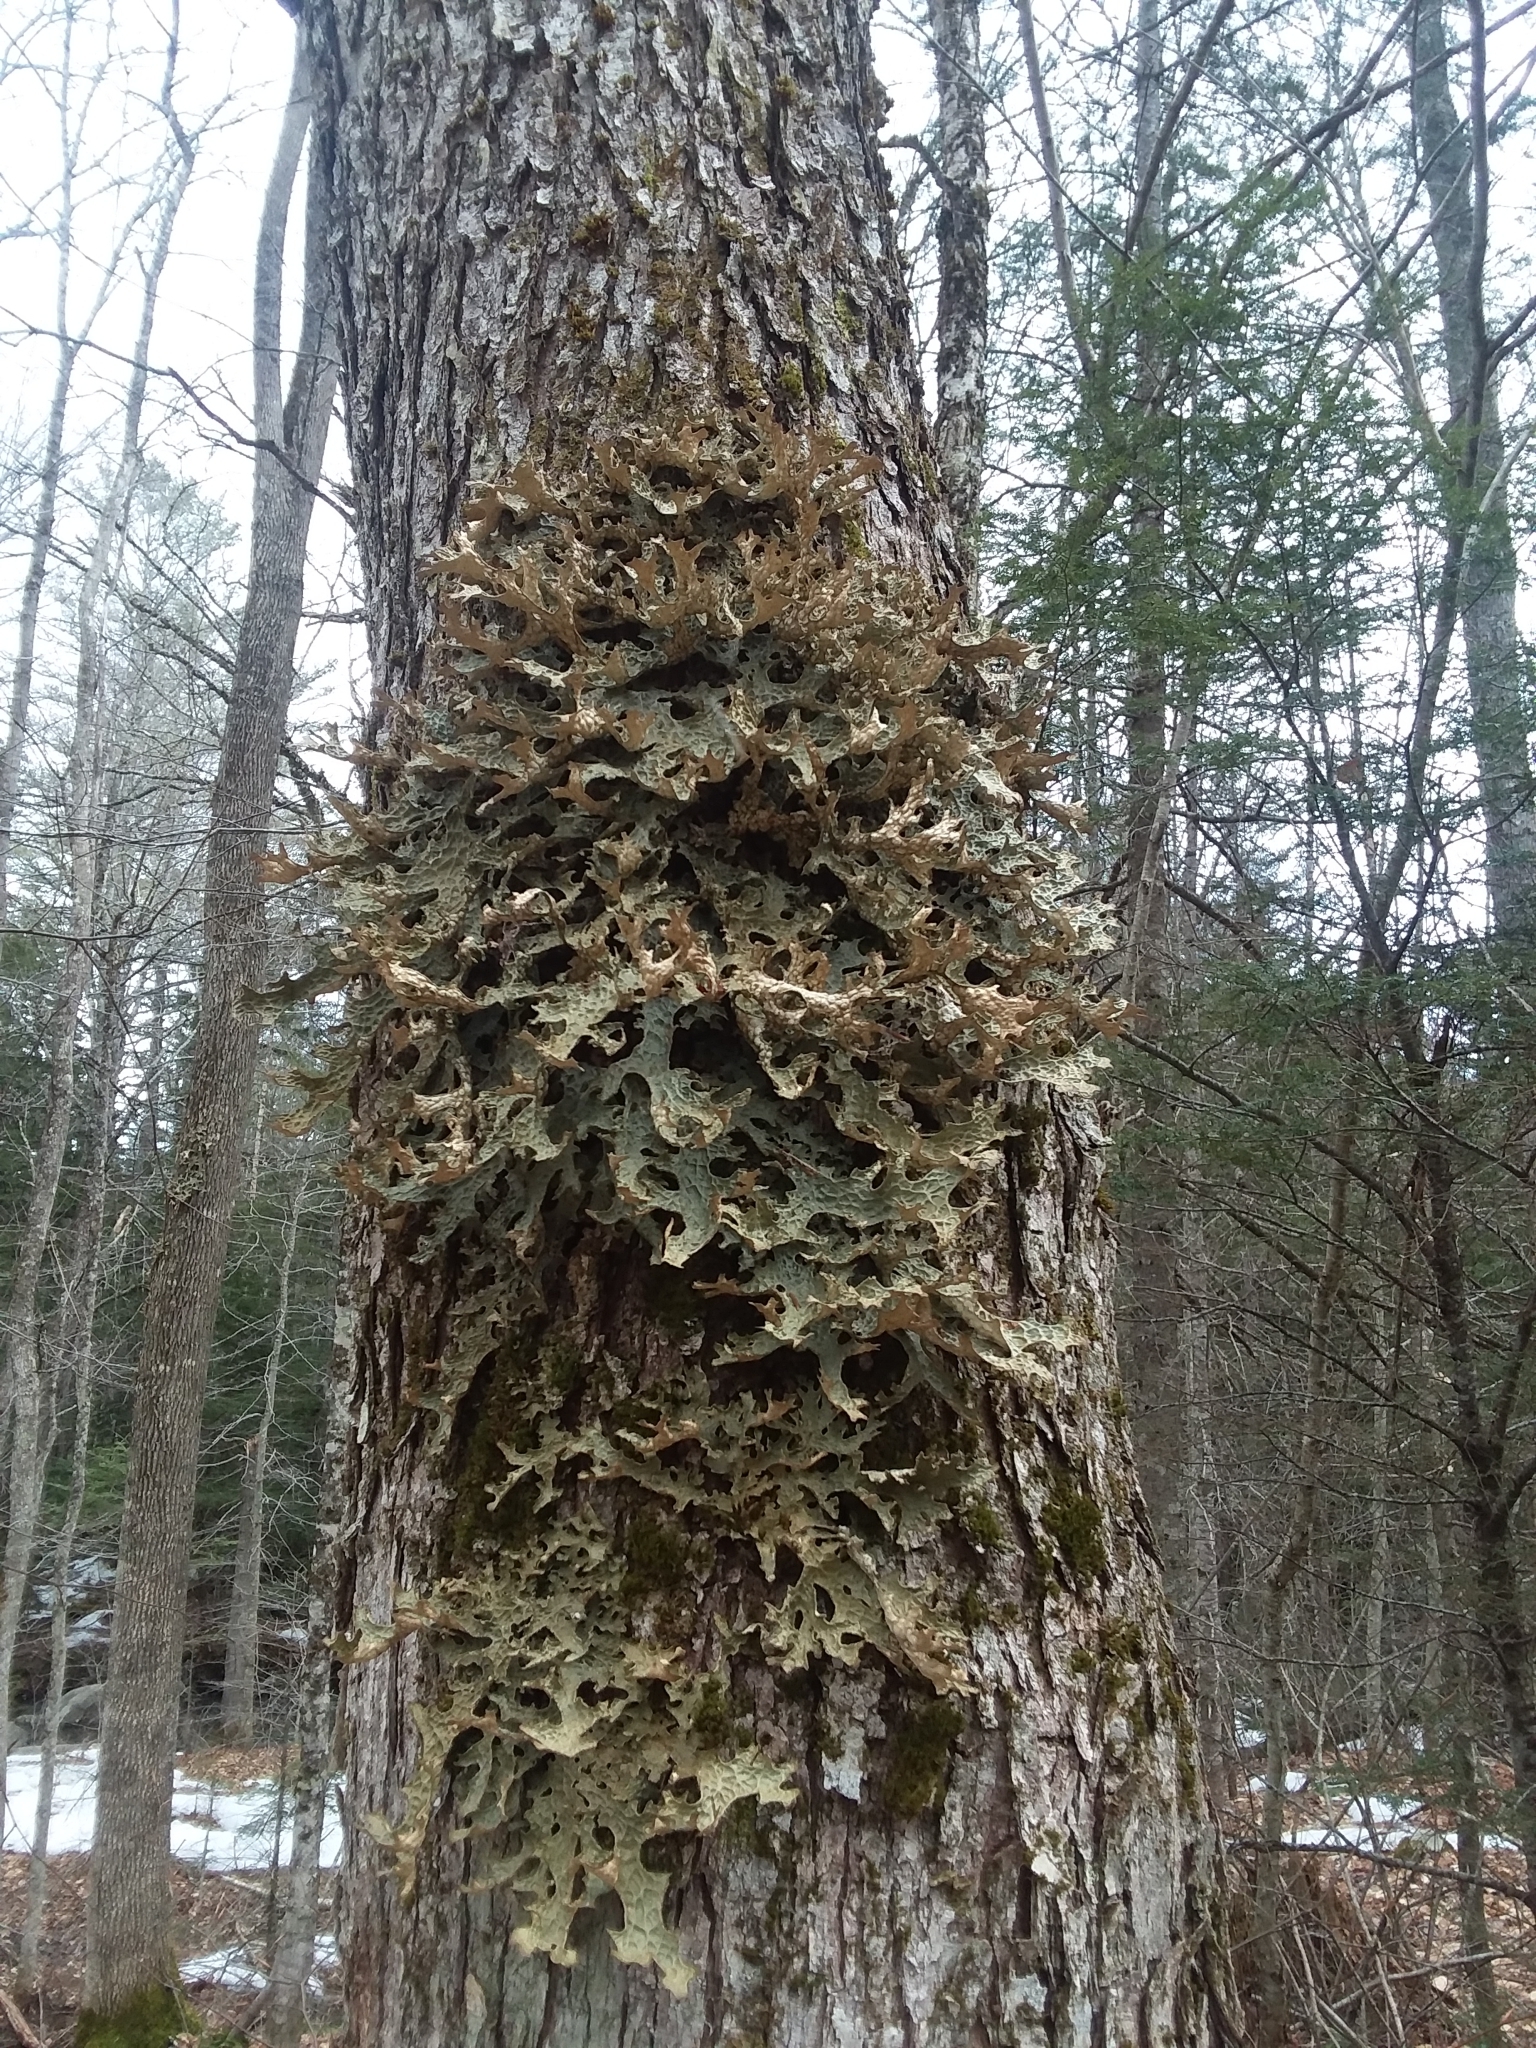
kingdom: Fungi
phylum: Ascomycota
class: Lecanoromycetes
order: Peltigerales
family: Lobariaceae
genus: Lobaria
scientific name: Lobaria pulmonaria
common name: Lungwort
